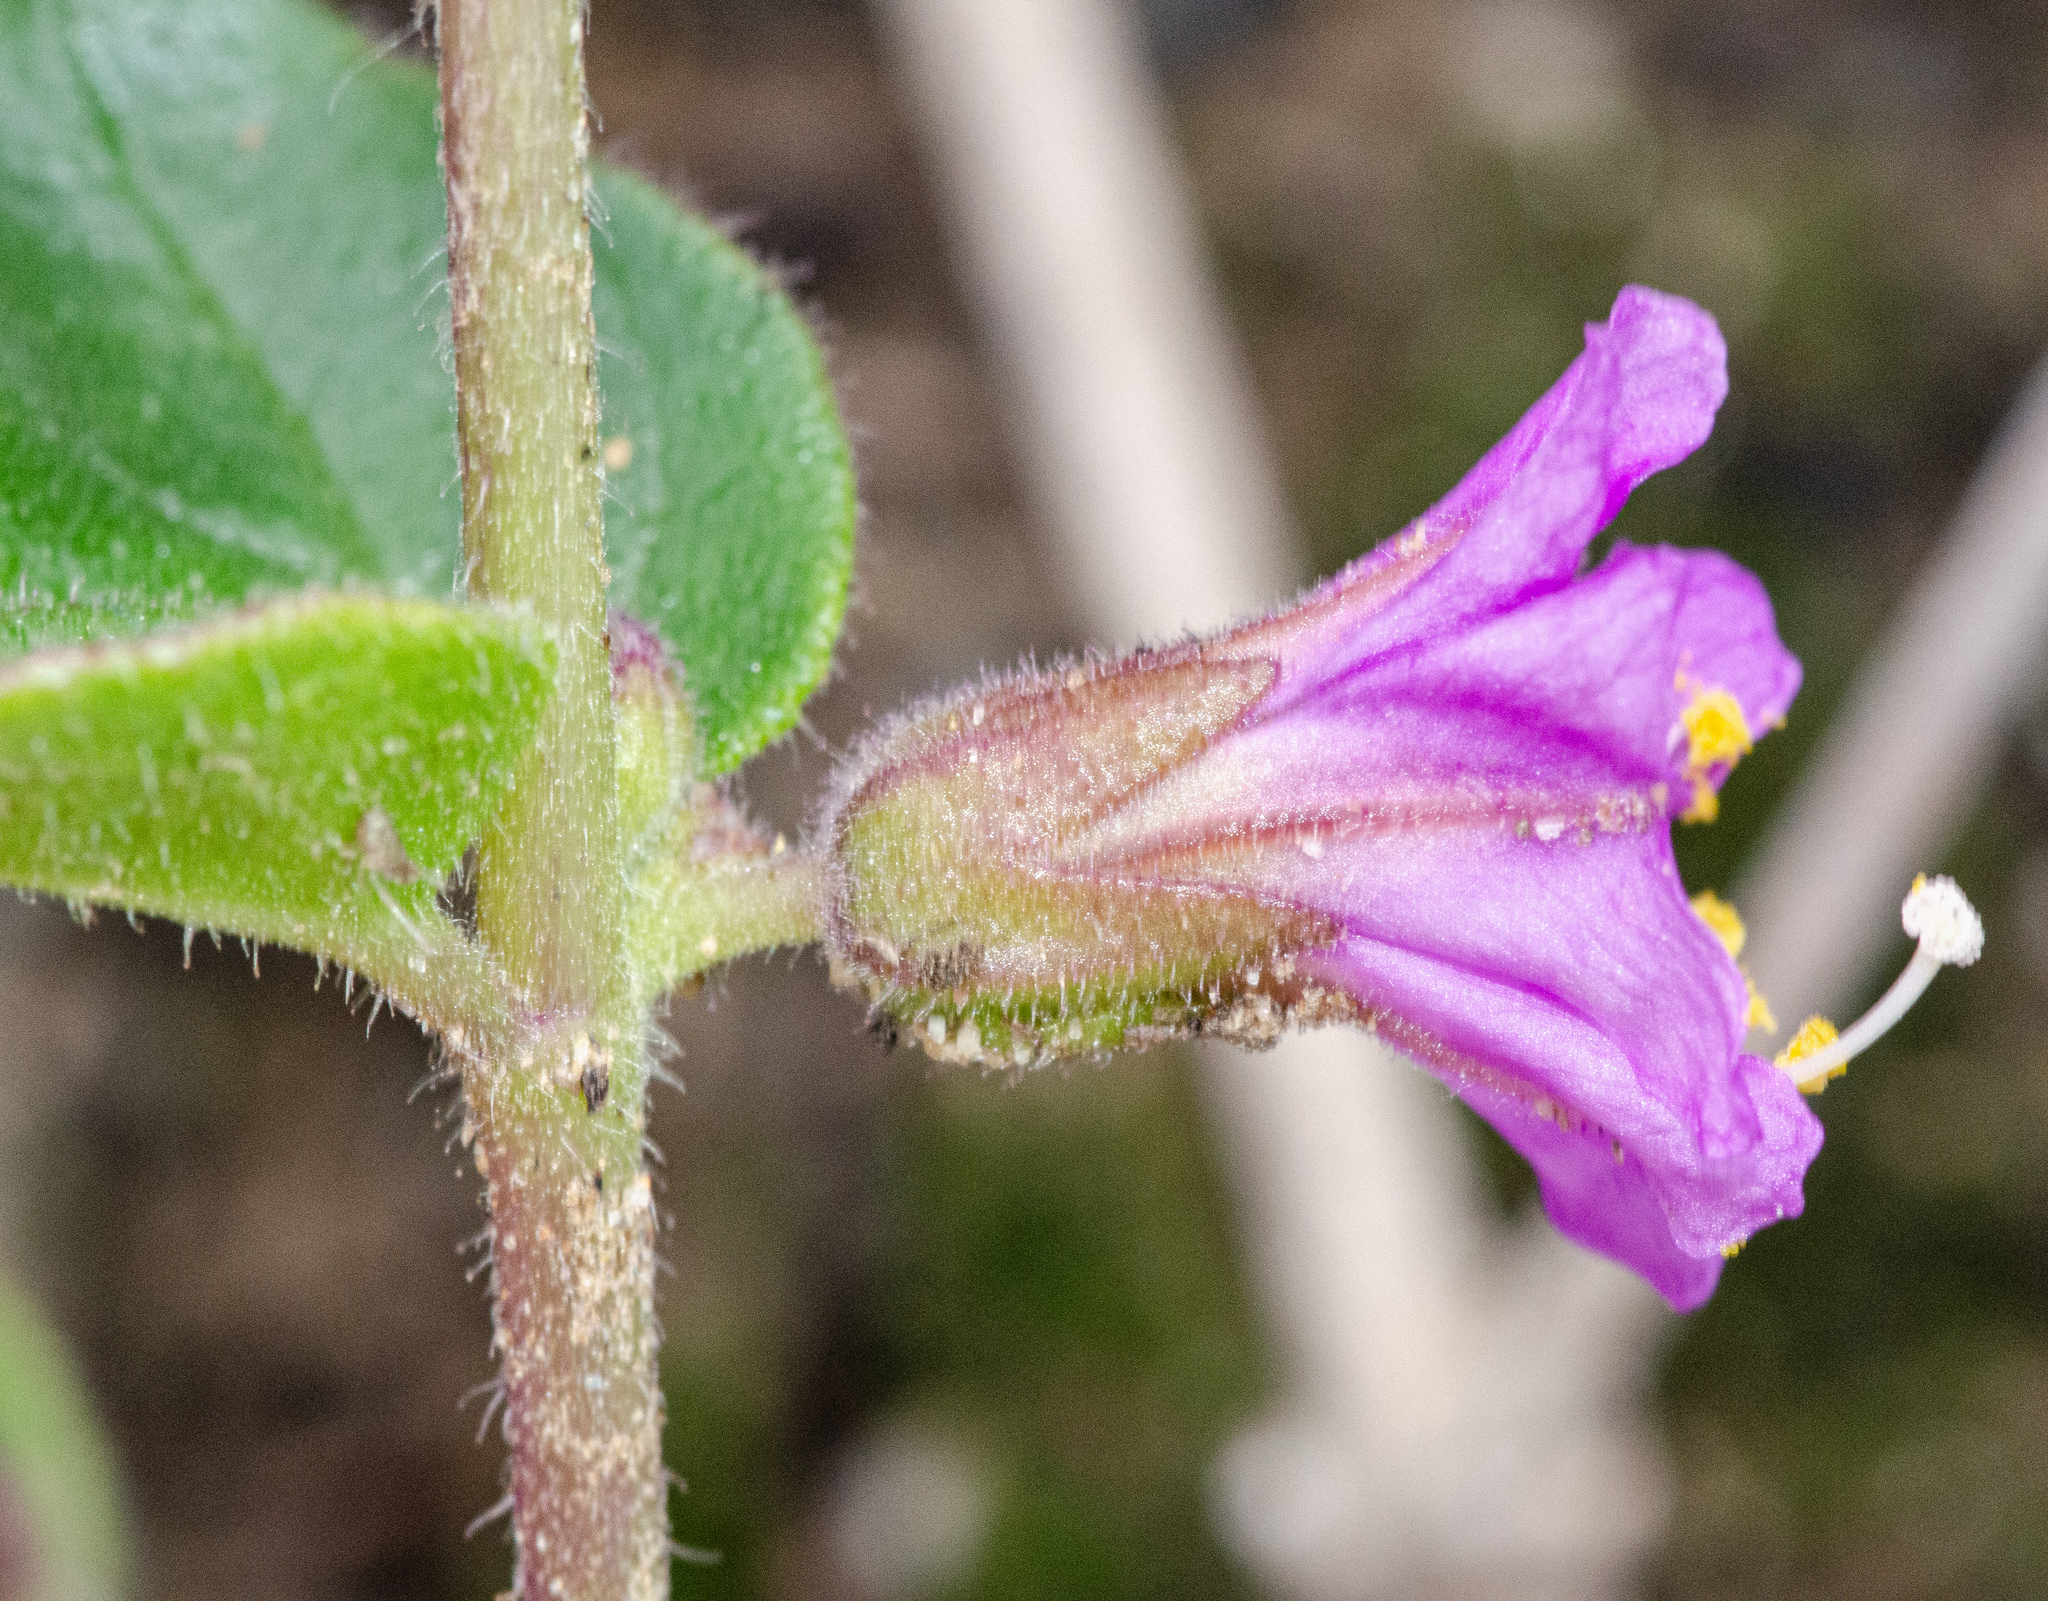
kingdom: Plantae
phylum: Tracheophyta
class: Magnoliopsida
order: Caryophyllales
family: Nyctaginaceae
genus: Mirabilis
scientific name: Mirabilis laevis
